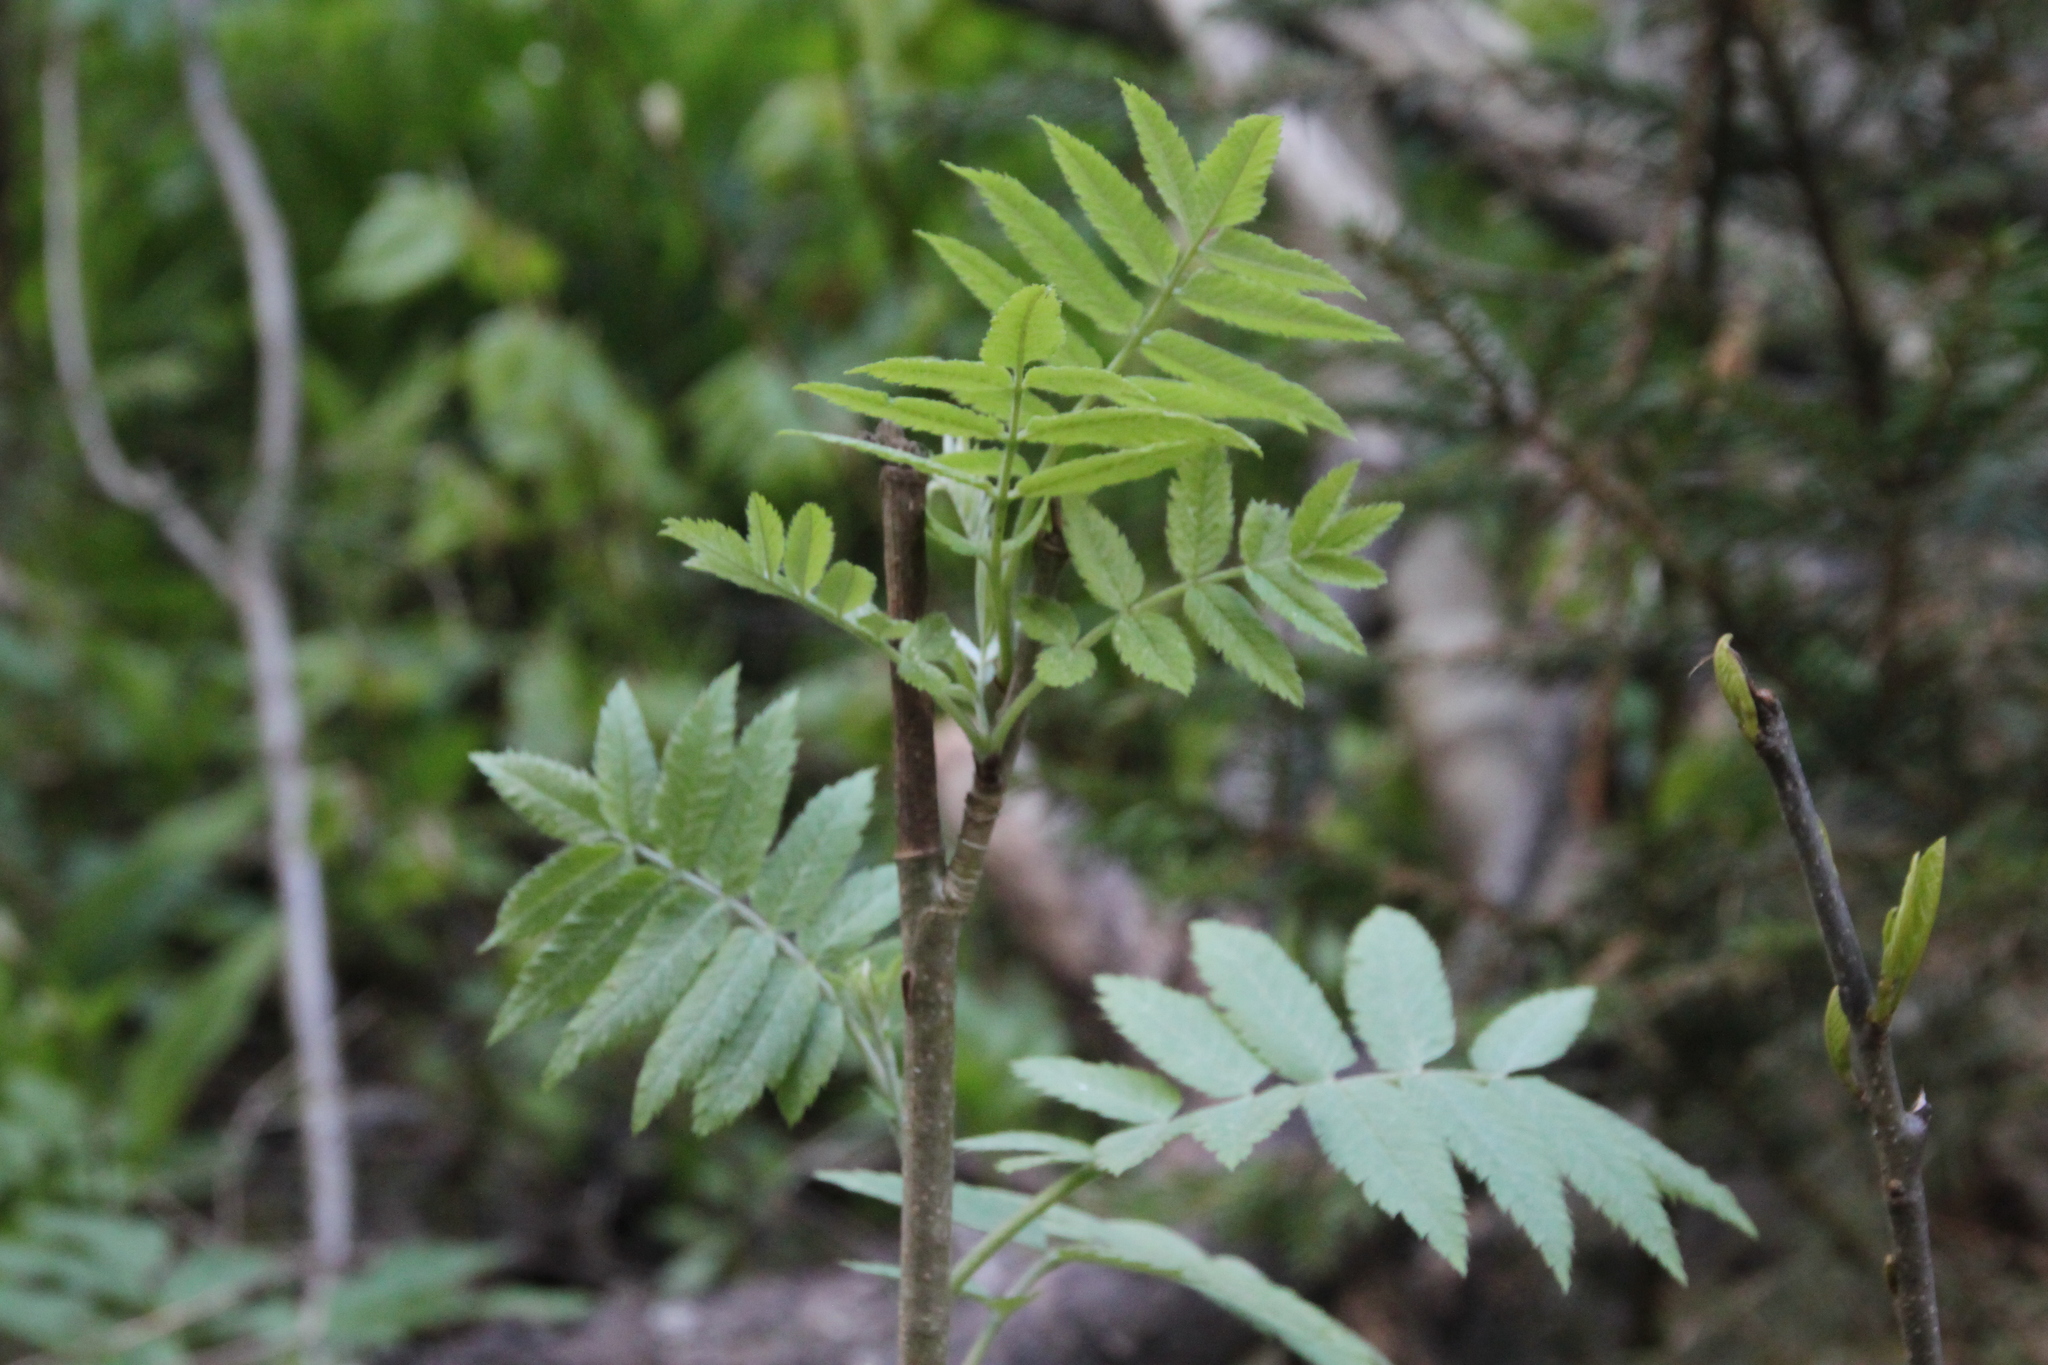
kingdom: Plantae
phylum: Tracheophyta
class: Magnoliopsida
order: Rosales
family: Rosaceae
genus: Sorbus
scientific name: Sorbus aucuparia
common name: Rowan
